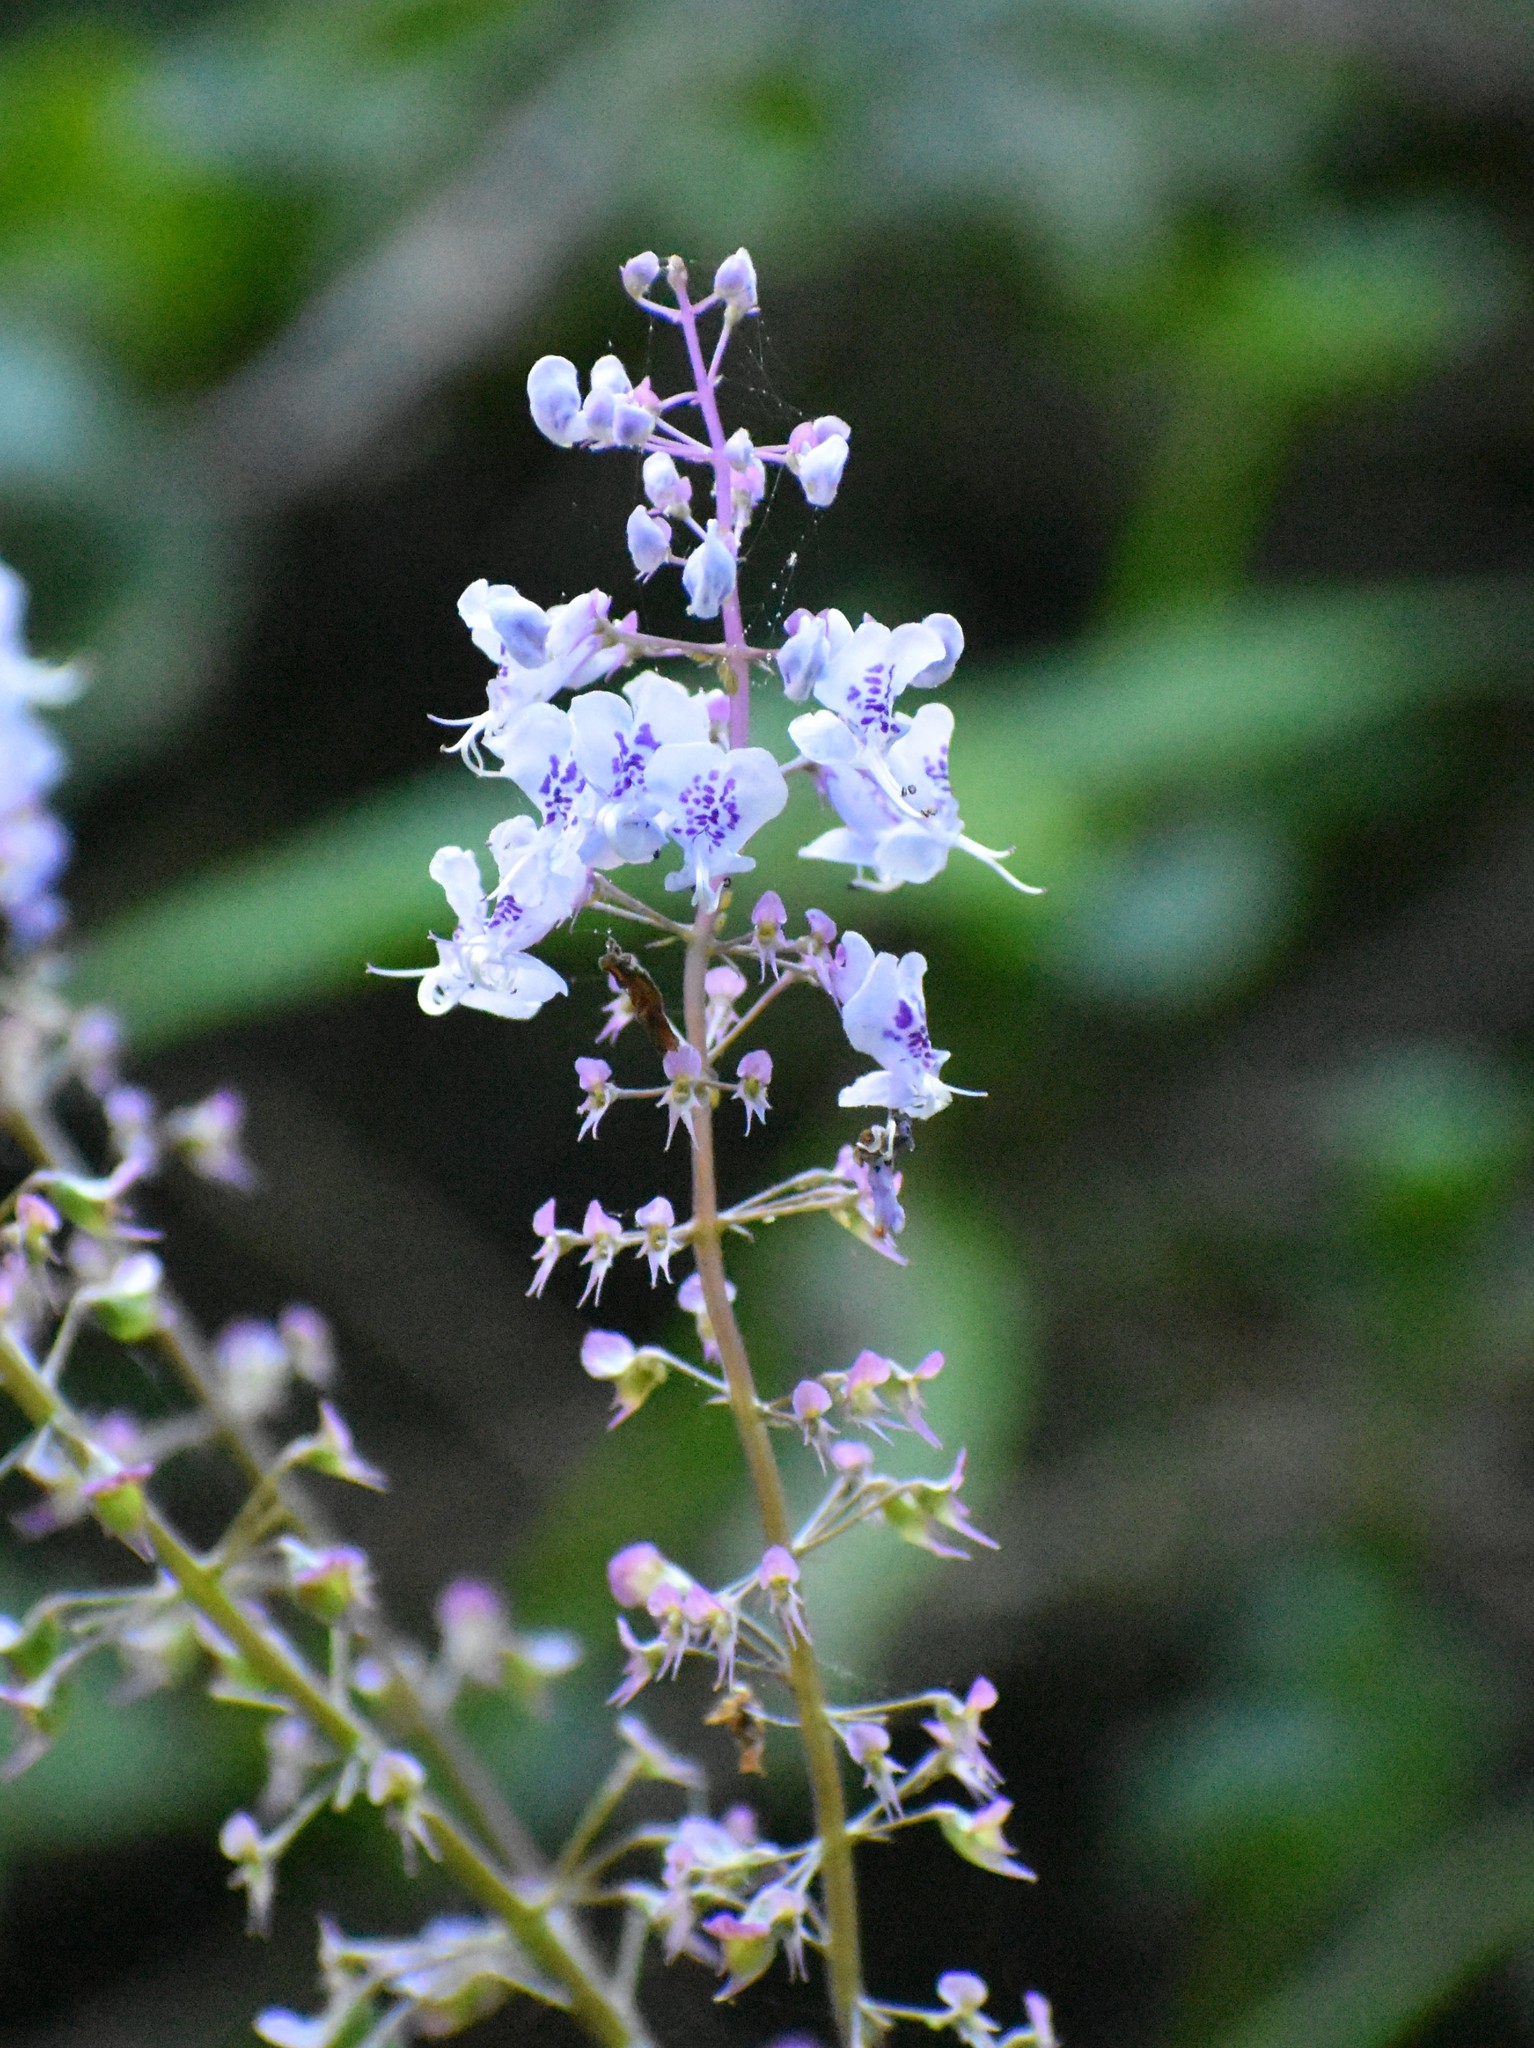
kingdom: Plantae
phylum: Tracheophyta
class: Magnoliopsida
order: Lamiales
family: Lamiaceae
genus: Plectranthus
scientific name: Plectranthus fruticosus
